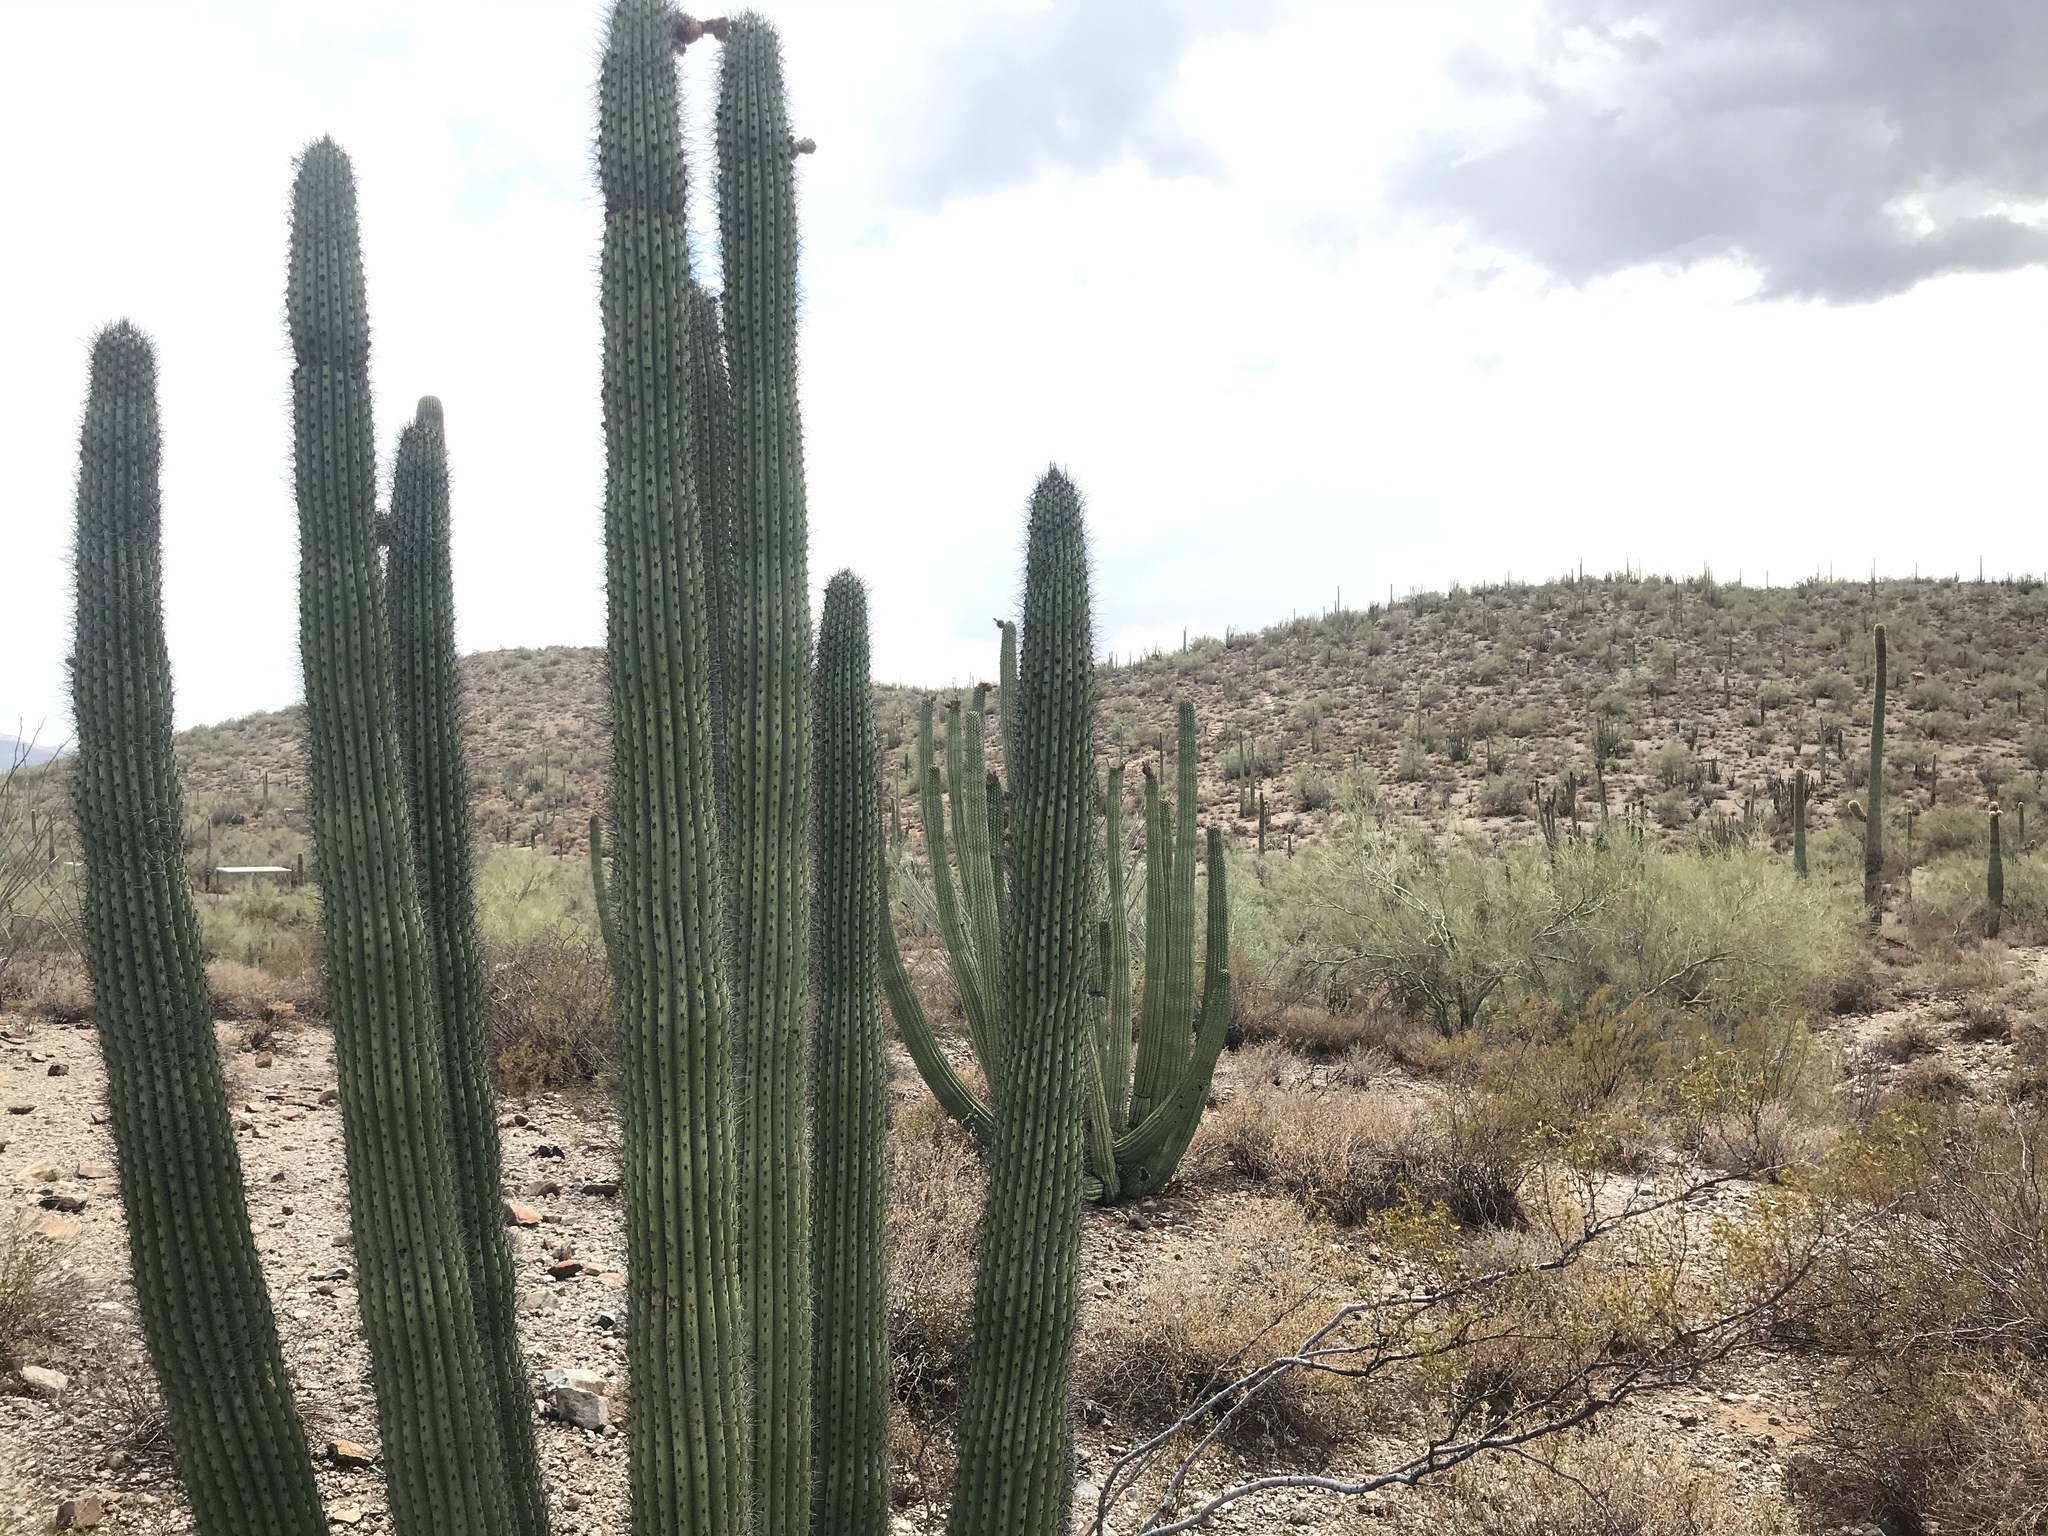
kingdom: Plantae
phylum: Tracheophyta
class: Magnoliopsida
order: Caryophyllales
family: Cactaceae
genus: Stenocereus
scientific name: Stenocereus thurberi
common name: Organ pipe cactus
